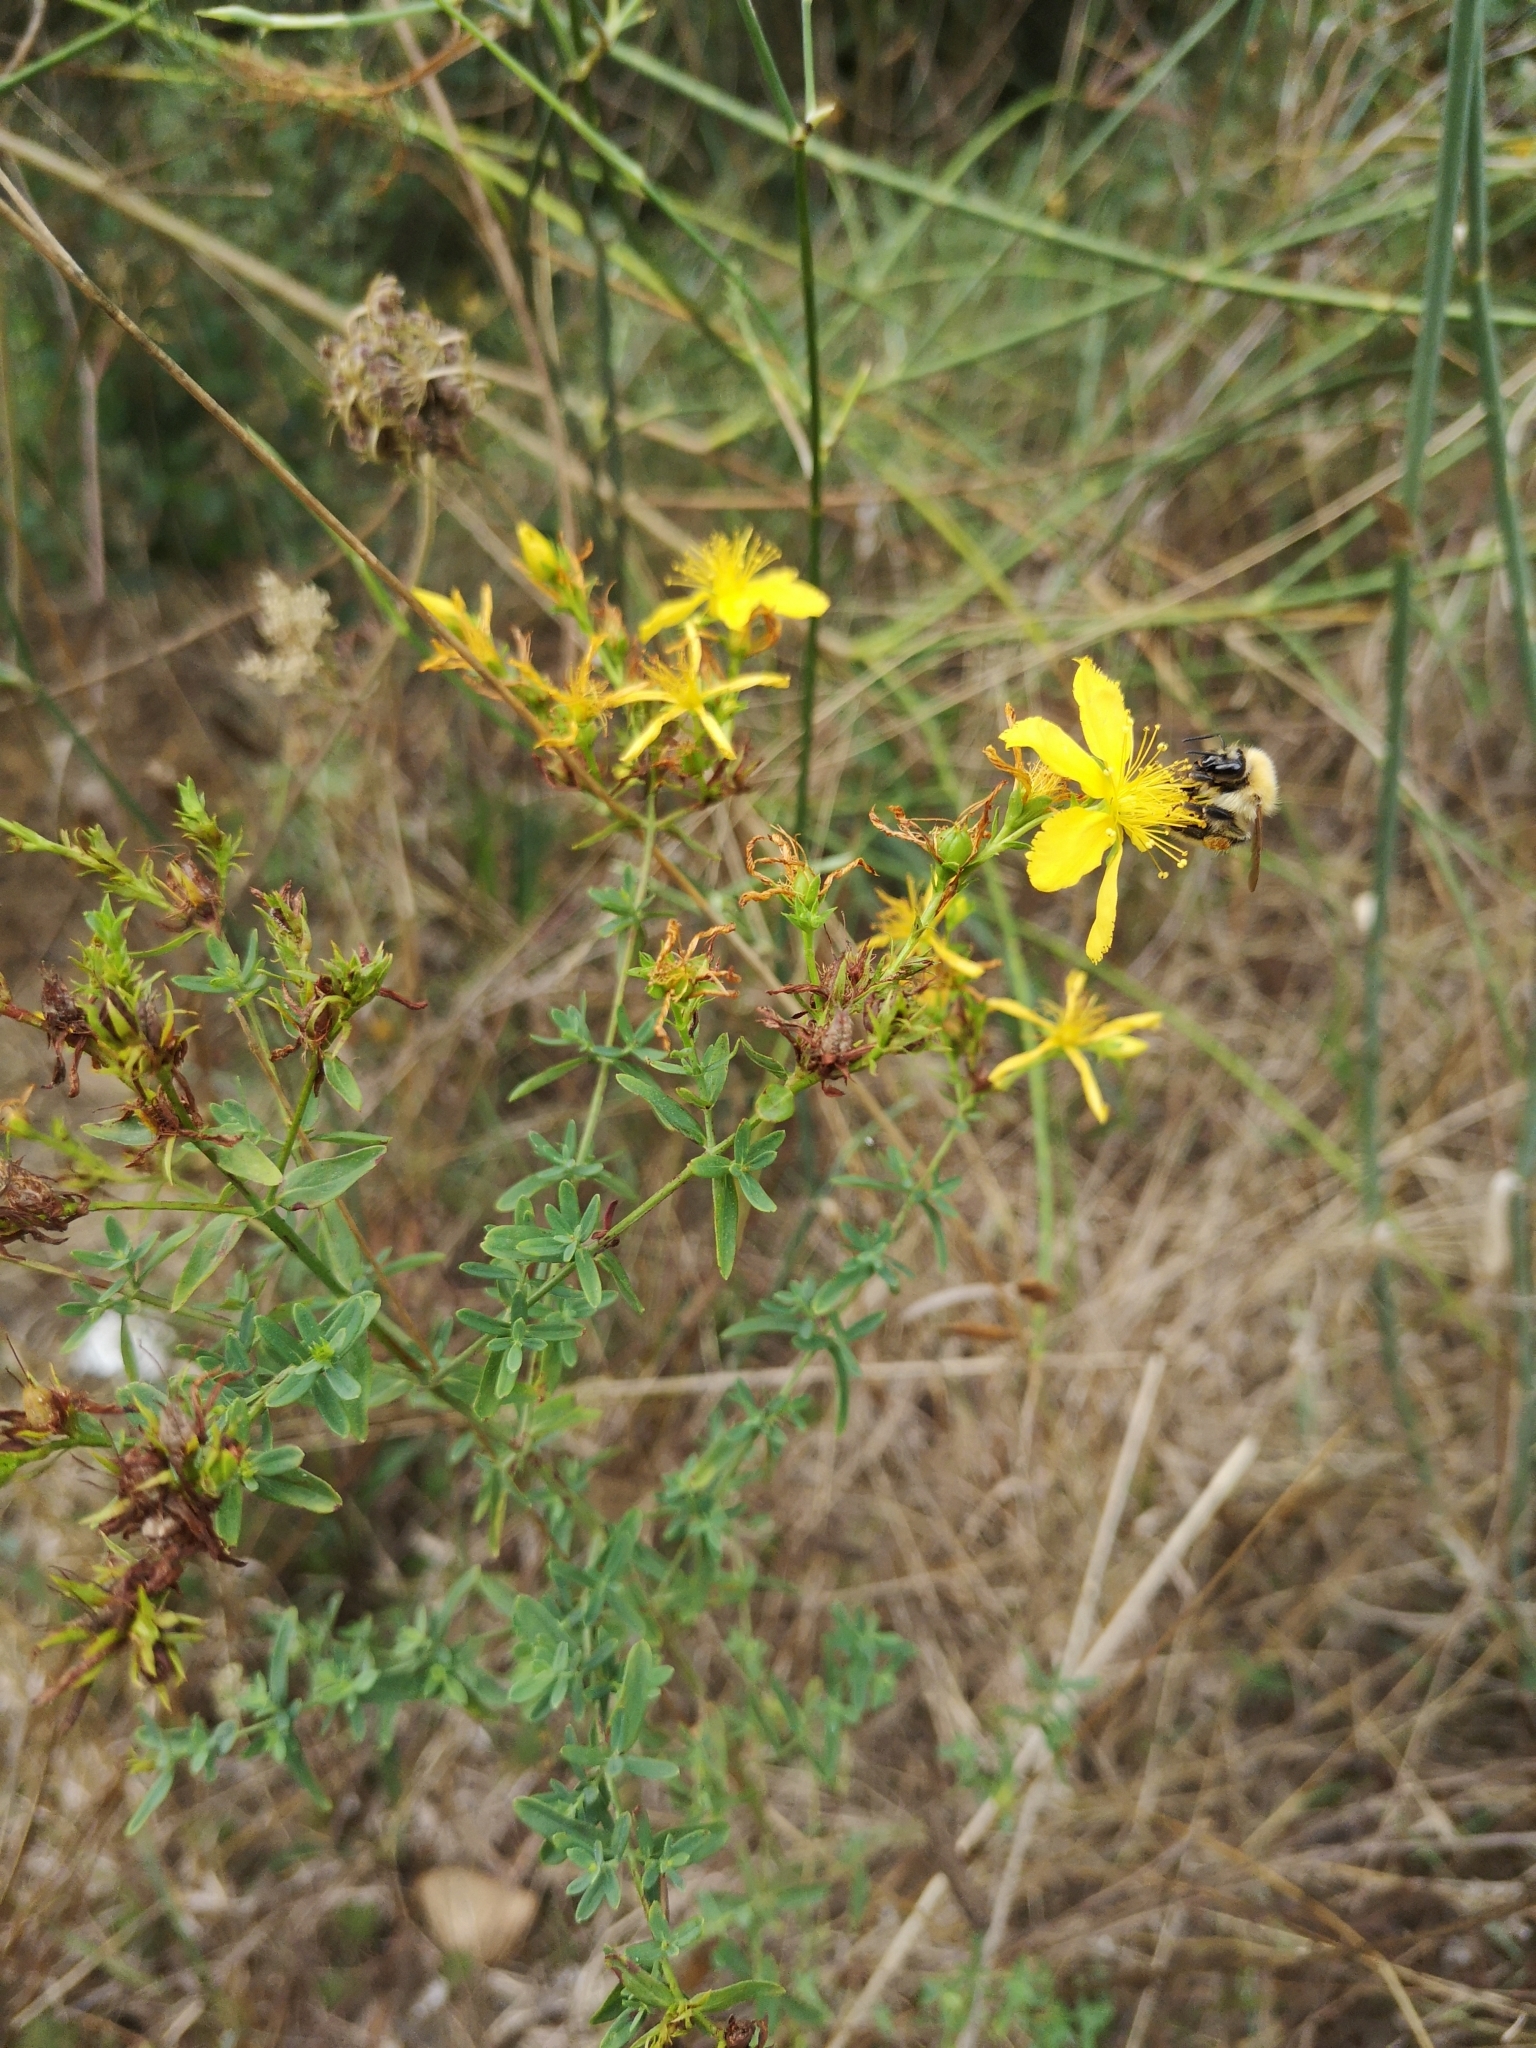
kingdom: Plantae
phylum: Tracheophyta
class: Magnoliopsida
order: Malpighiales
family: Hypericaceae
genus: Hypericum
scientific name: Hypericum perforatum
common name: Common st. johnswort
